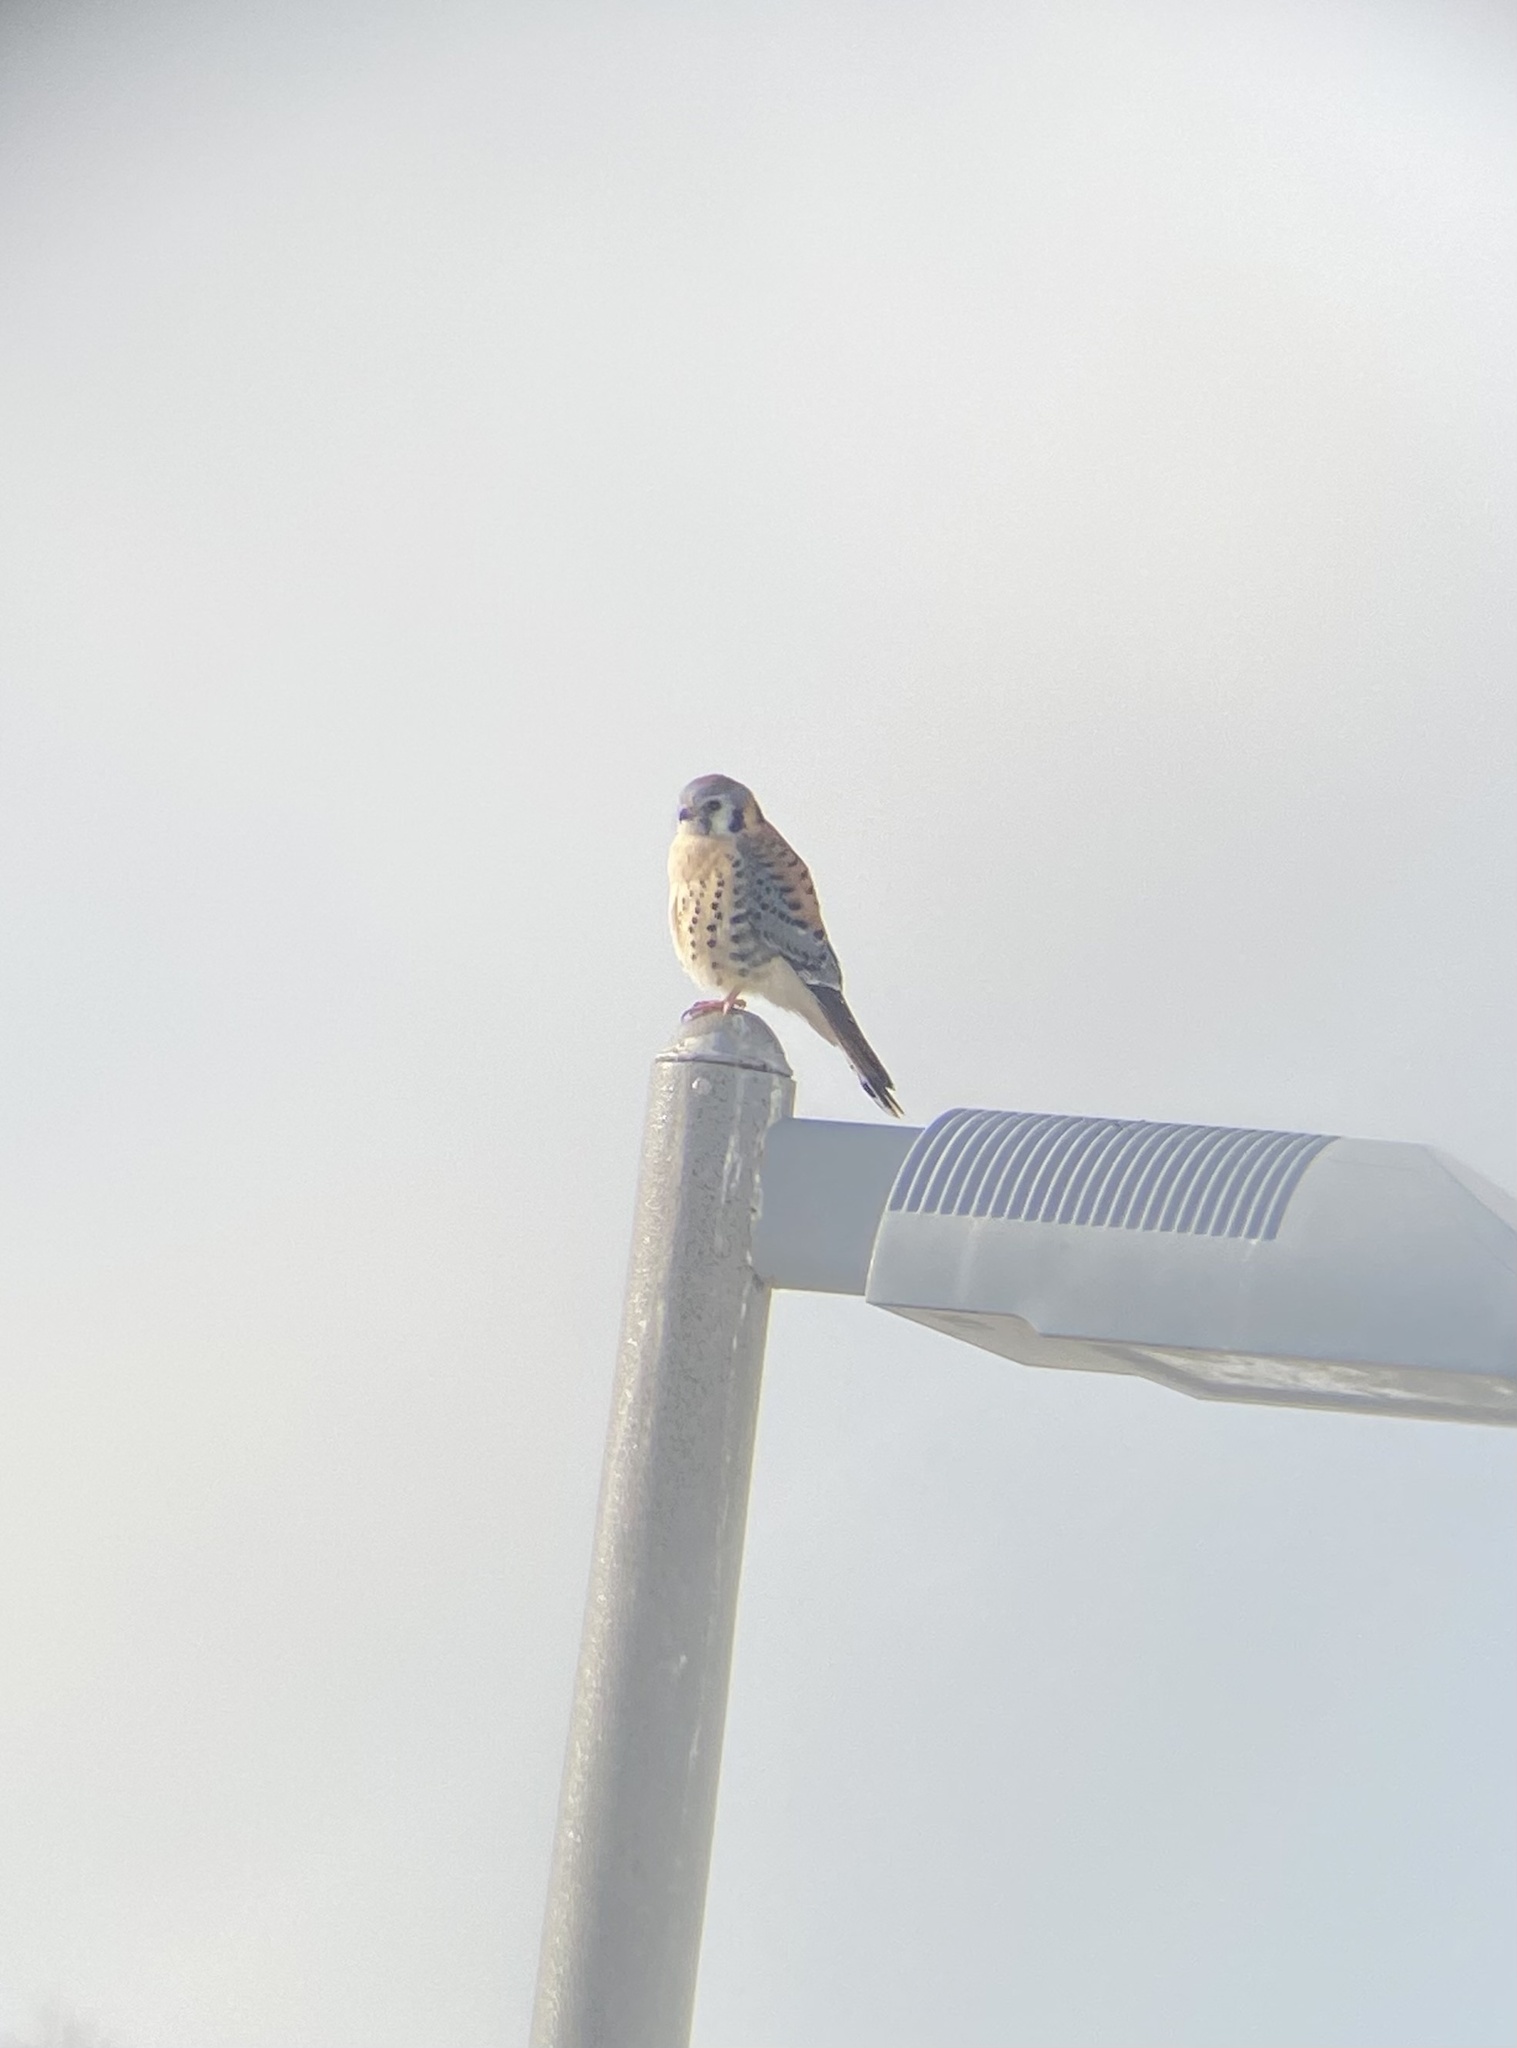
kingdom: Animalia
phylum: Chordata
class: Aves
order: Falconiformes
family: Falconidae
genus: Falco
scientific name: Falco sparverius
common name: American kestrel
